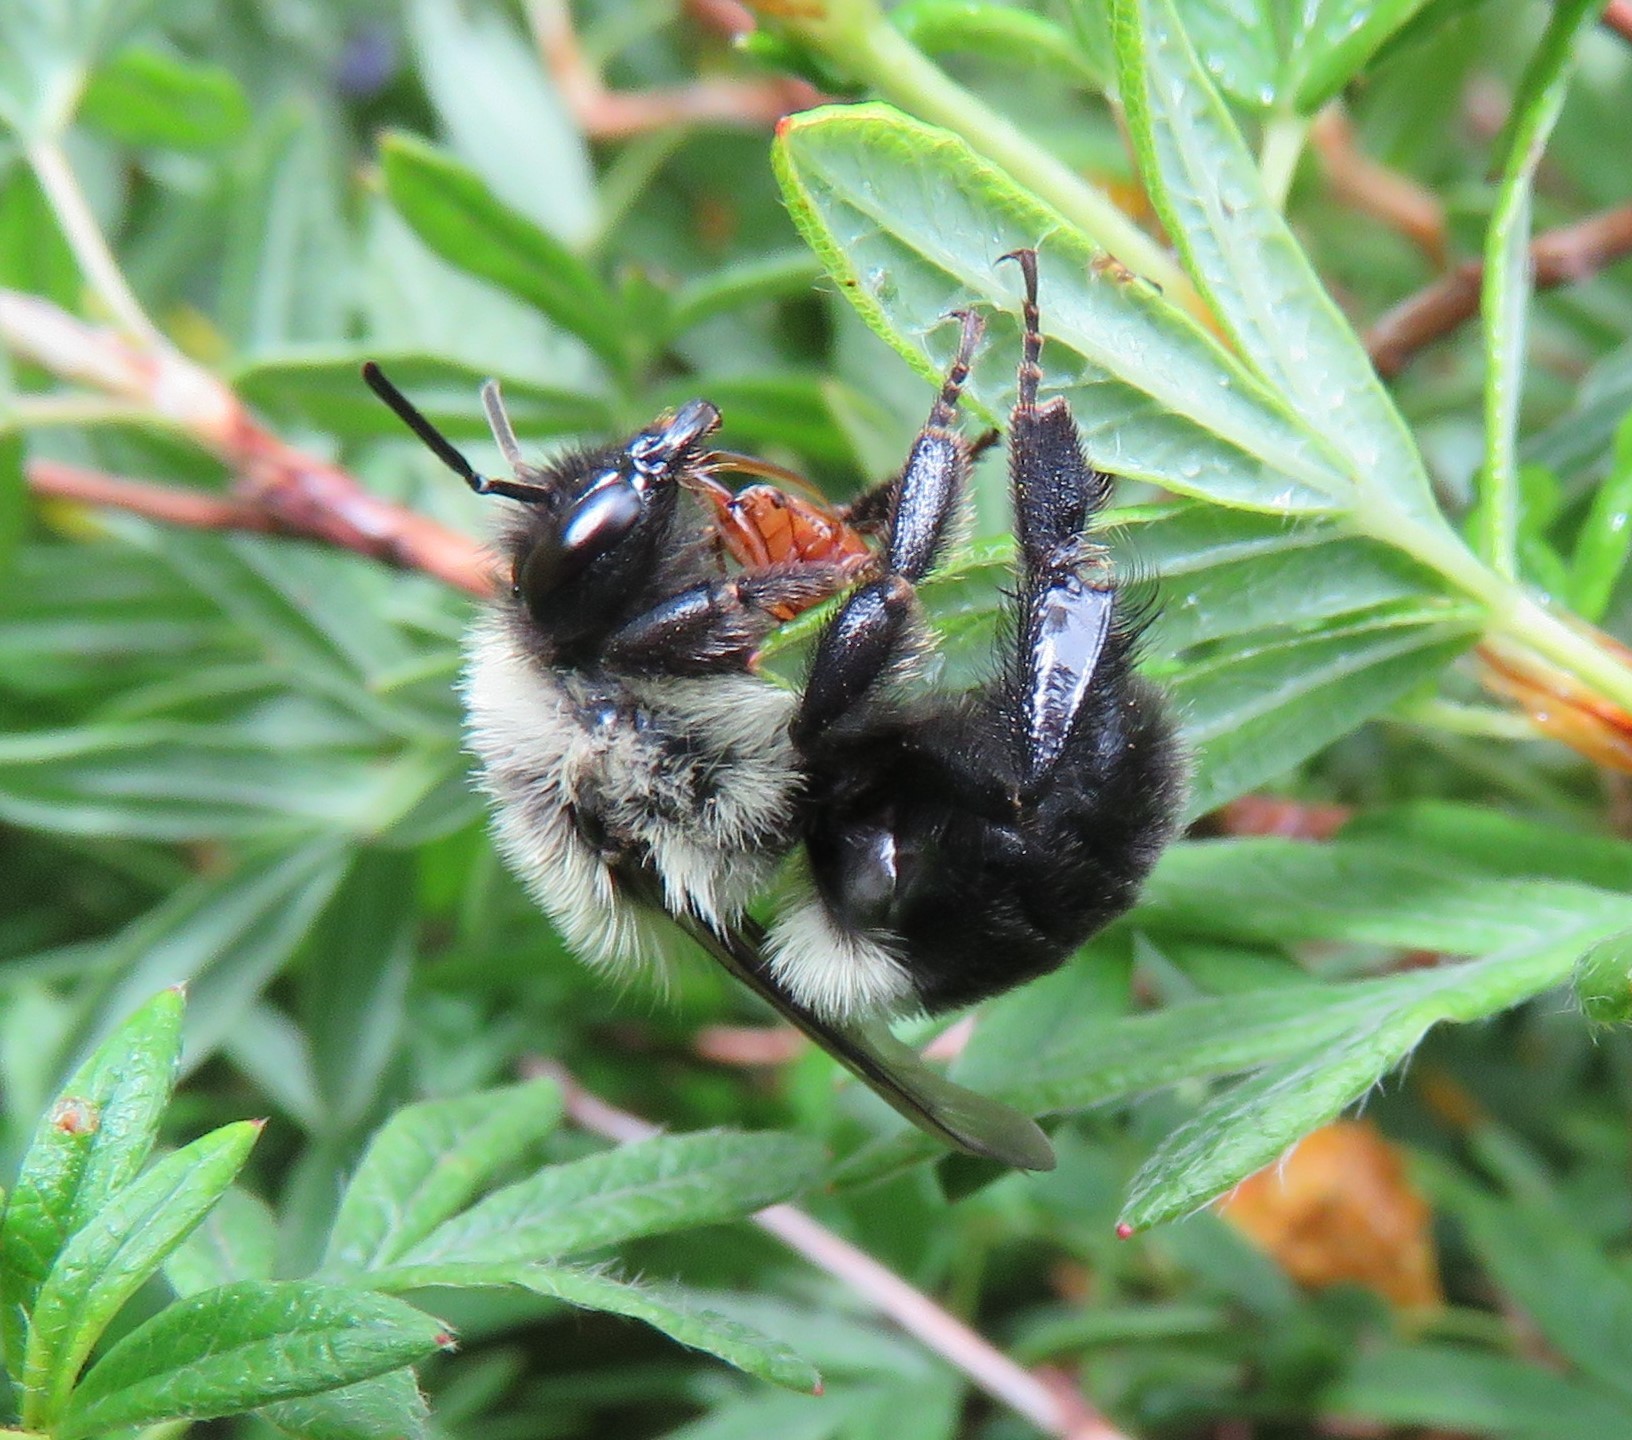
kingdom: Animalia
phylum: Arthropoda
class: Insecta
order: Coleoptera
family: Cryptophagidae
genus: Antherophagus
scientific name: Antherophagus ochraceus
